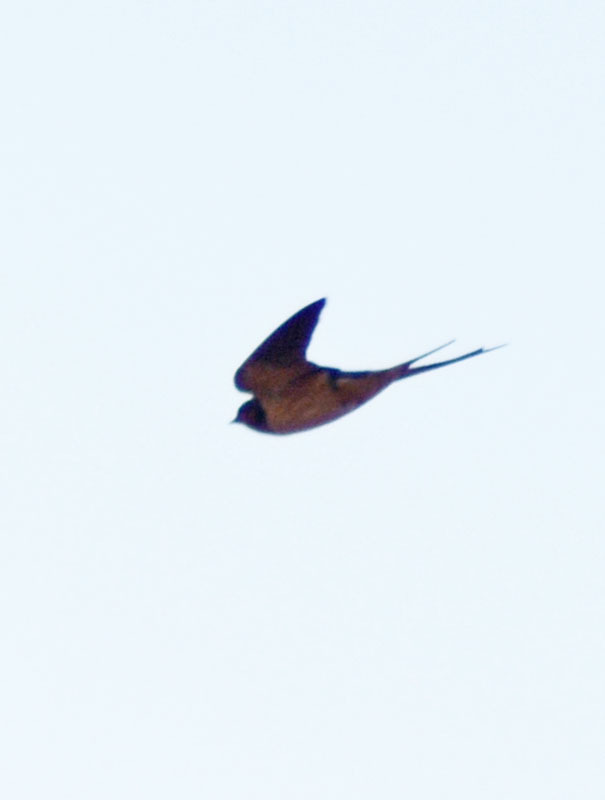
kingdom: Animalia
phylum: Chordata
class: Aves
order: Passeriformes
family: Hirundinidae
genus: Hirundo
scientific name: Hirundo rustica
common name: Barn swallow
